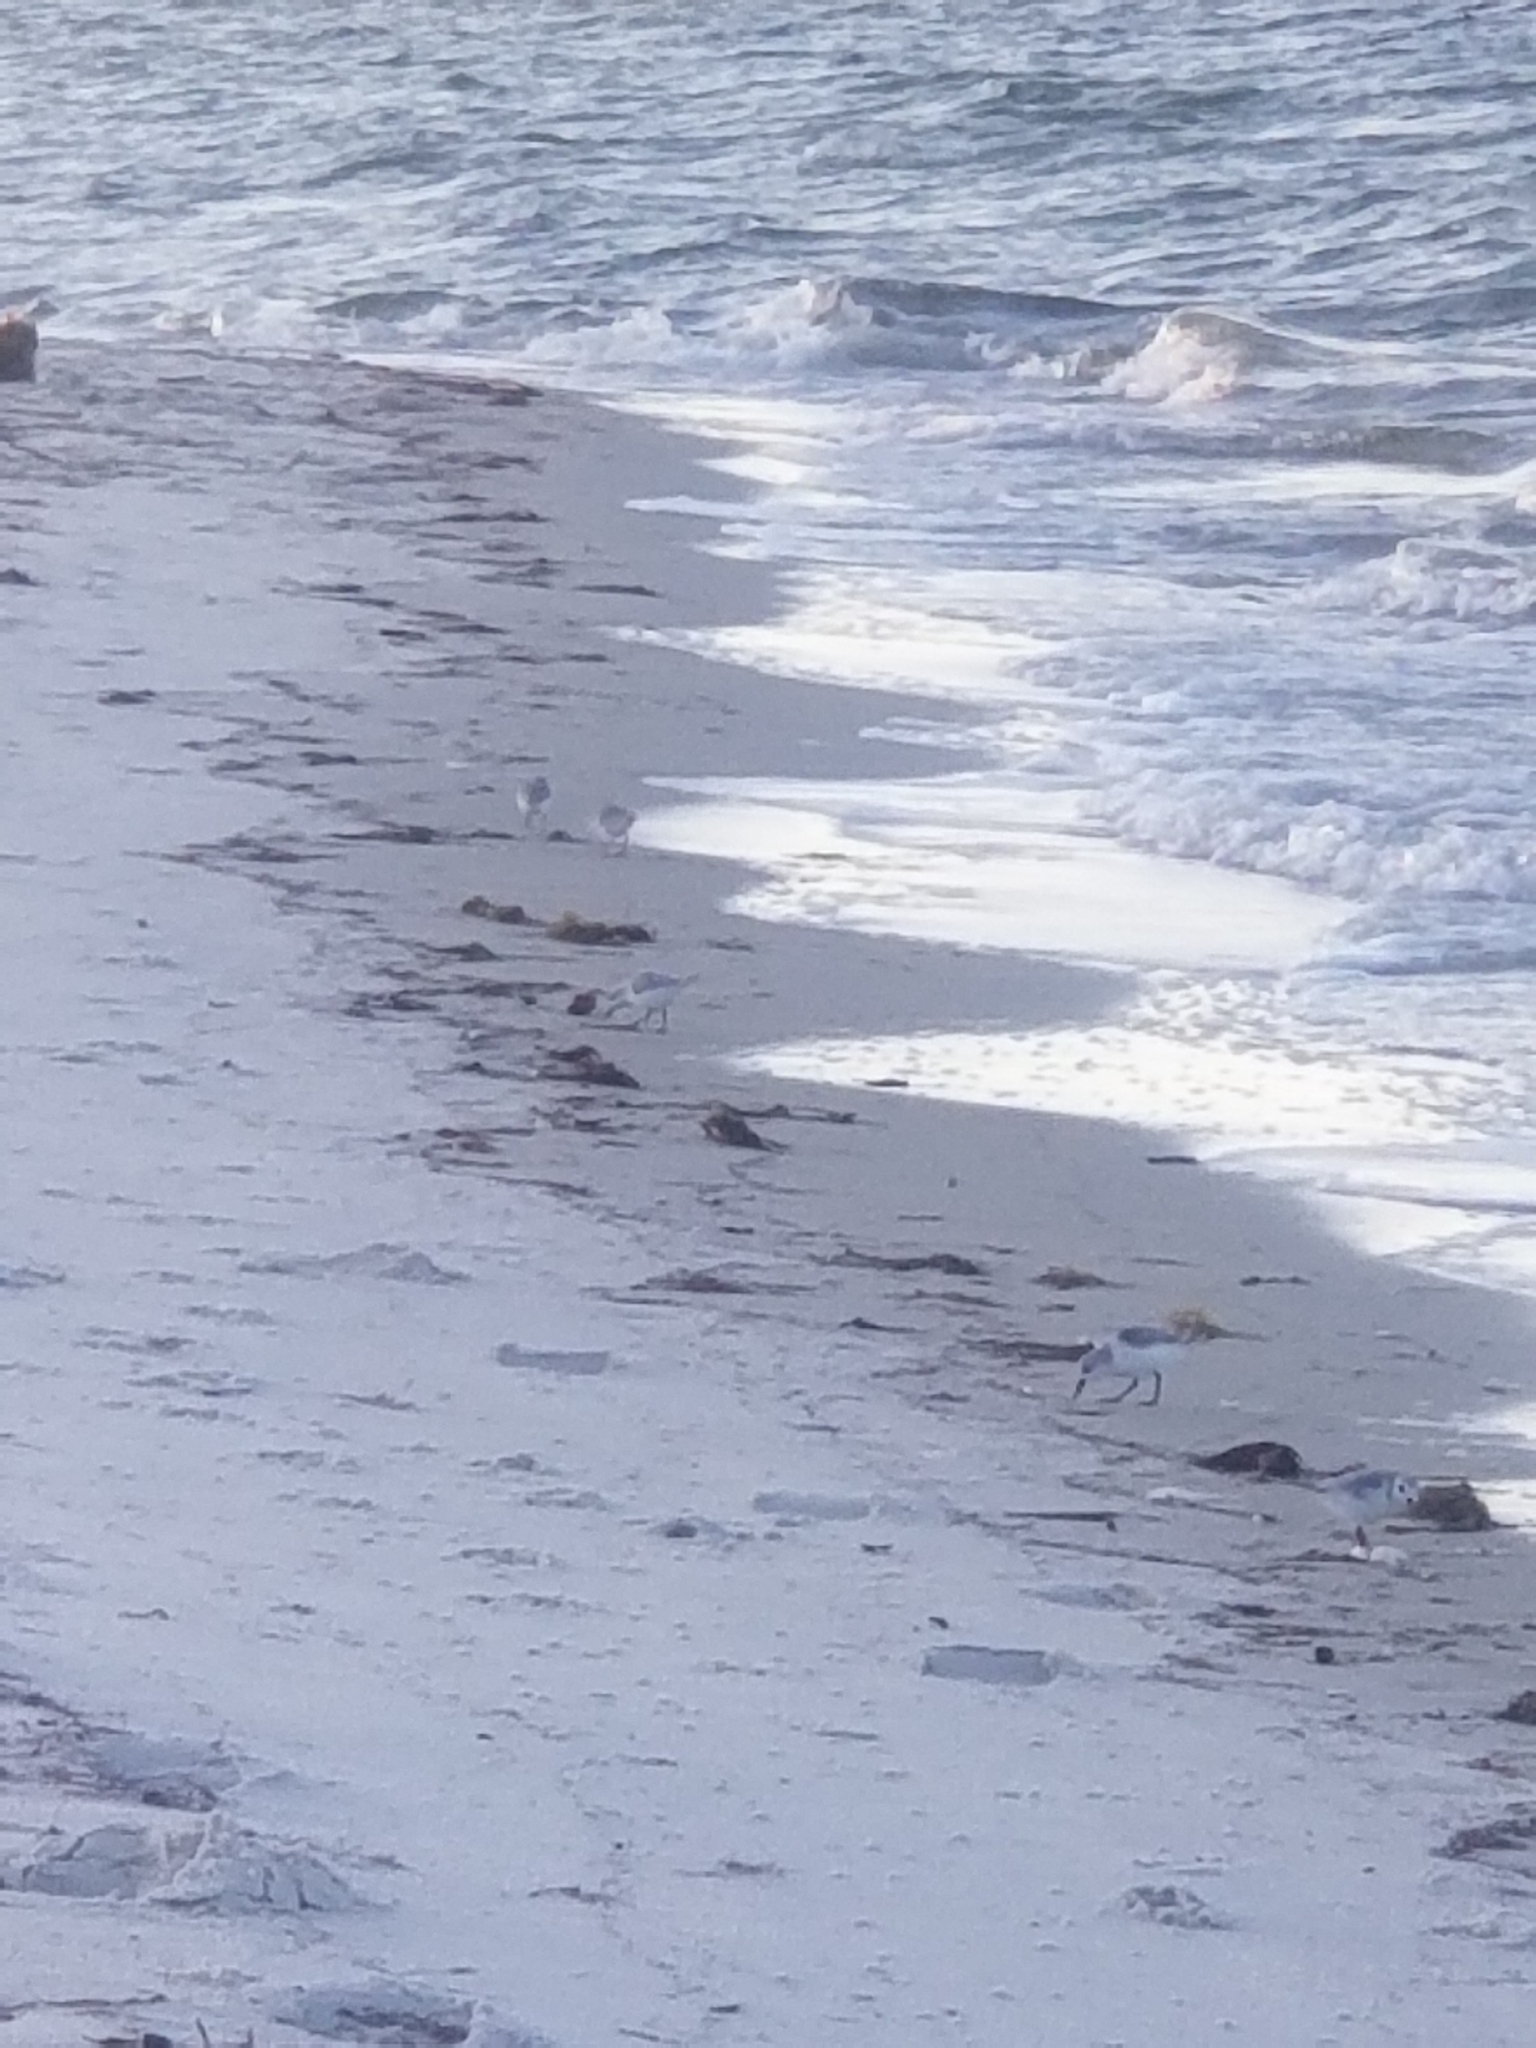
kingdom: Animalia
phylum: Chordata
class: Aves
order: Charadriiformes
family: Scolopacidae
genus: Calidris
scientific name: Calidris alba
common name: Sanderling
